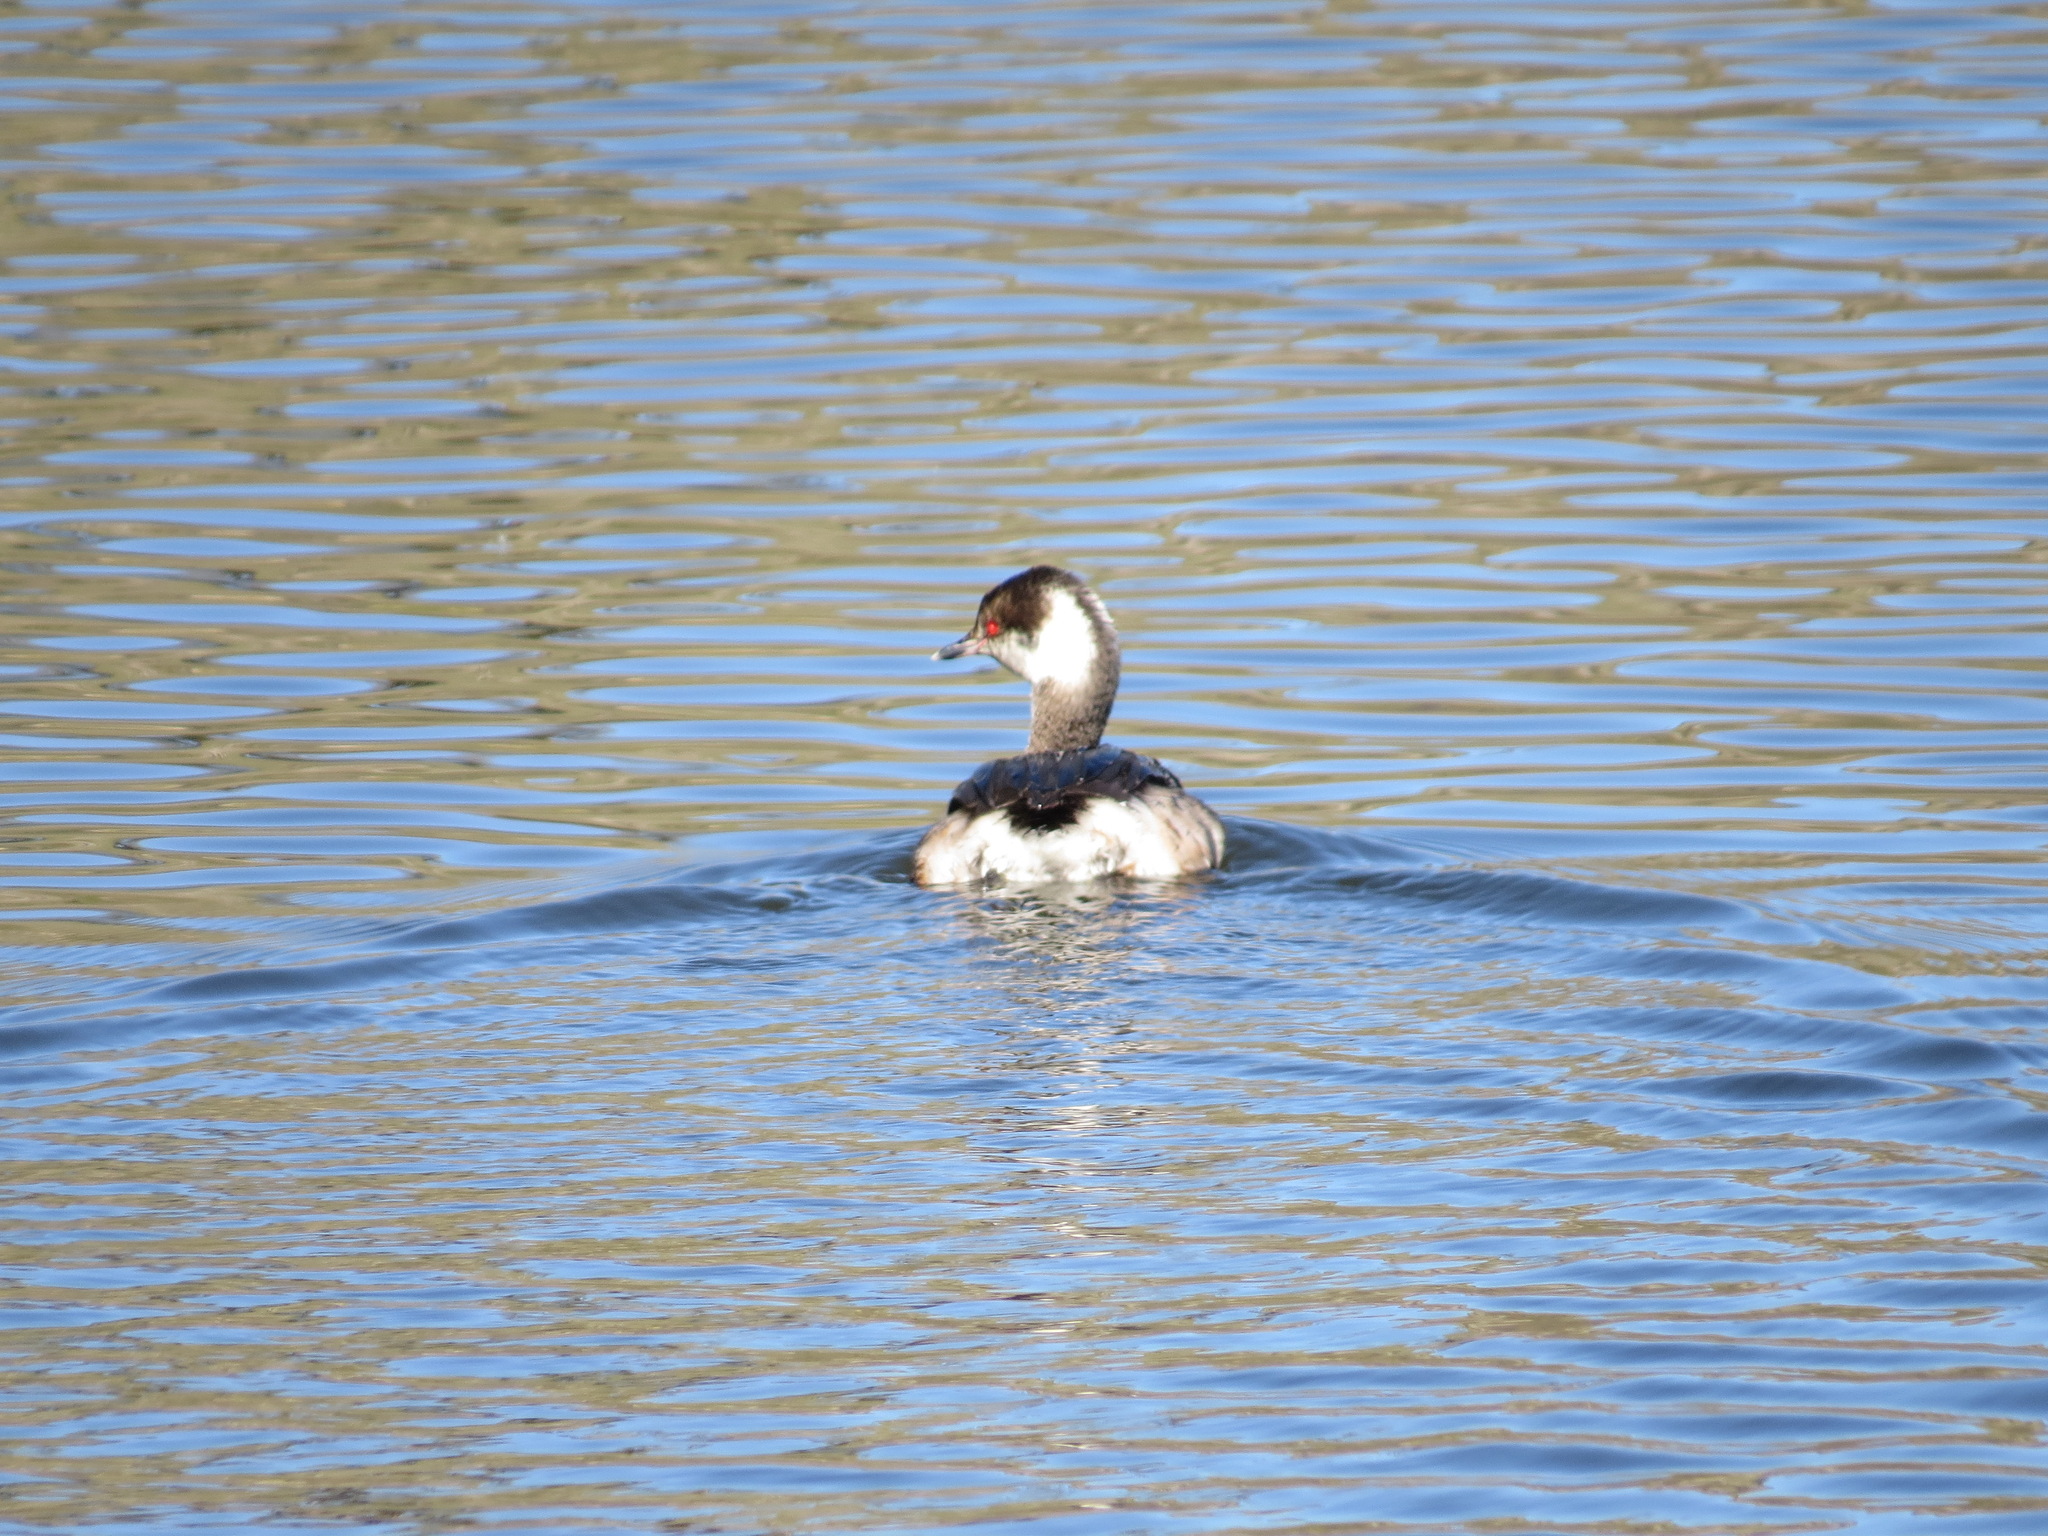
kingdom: Animalia
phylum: Chordata
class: Aves
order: Podicipediformes
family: Podicipedidae
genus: Podiceps
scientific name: Podiceps auritus
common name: Horned grebe
